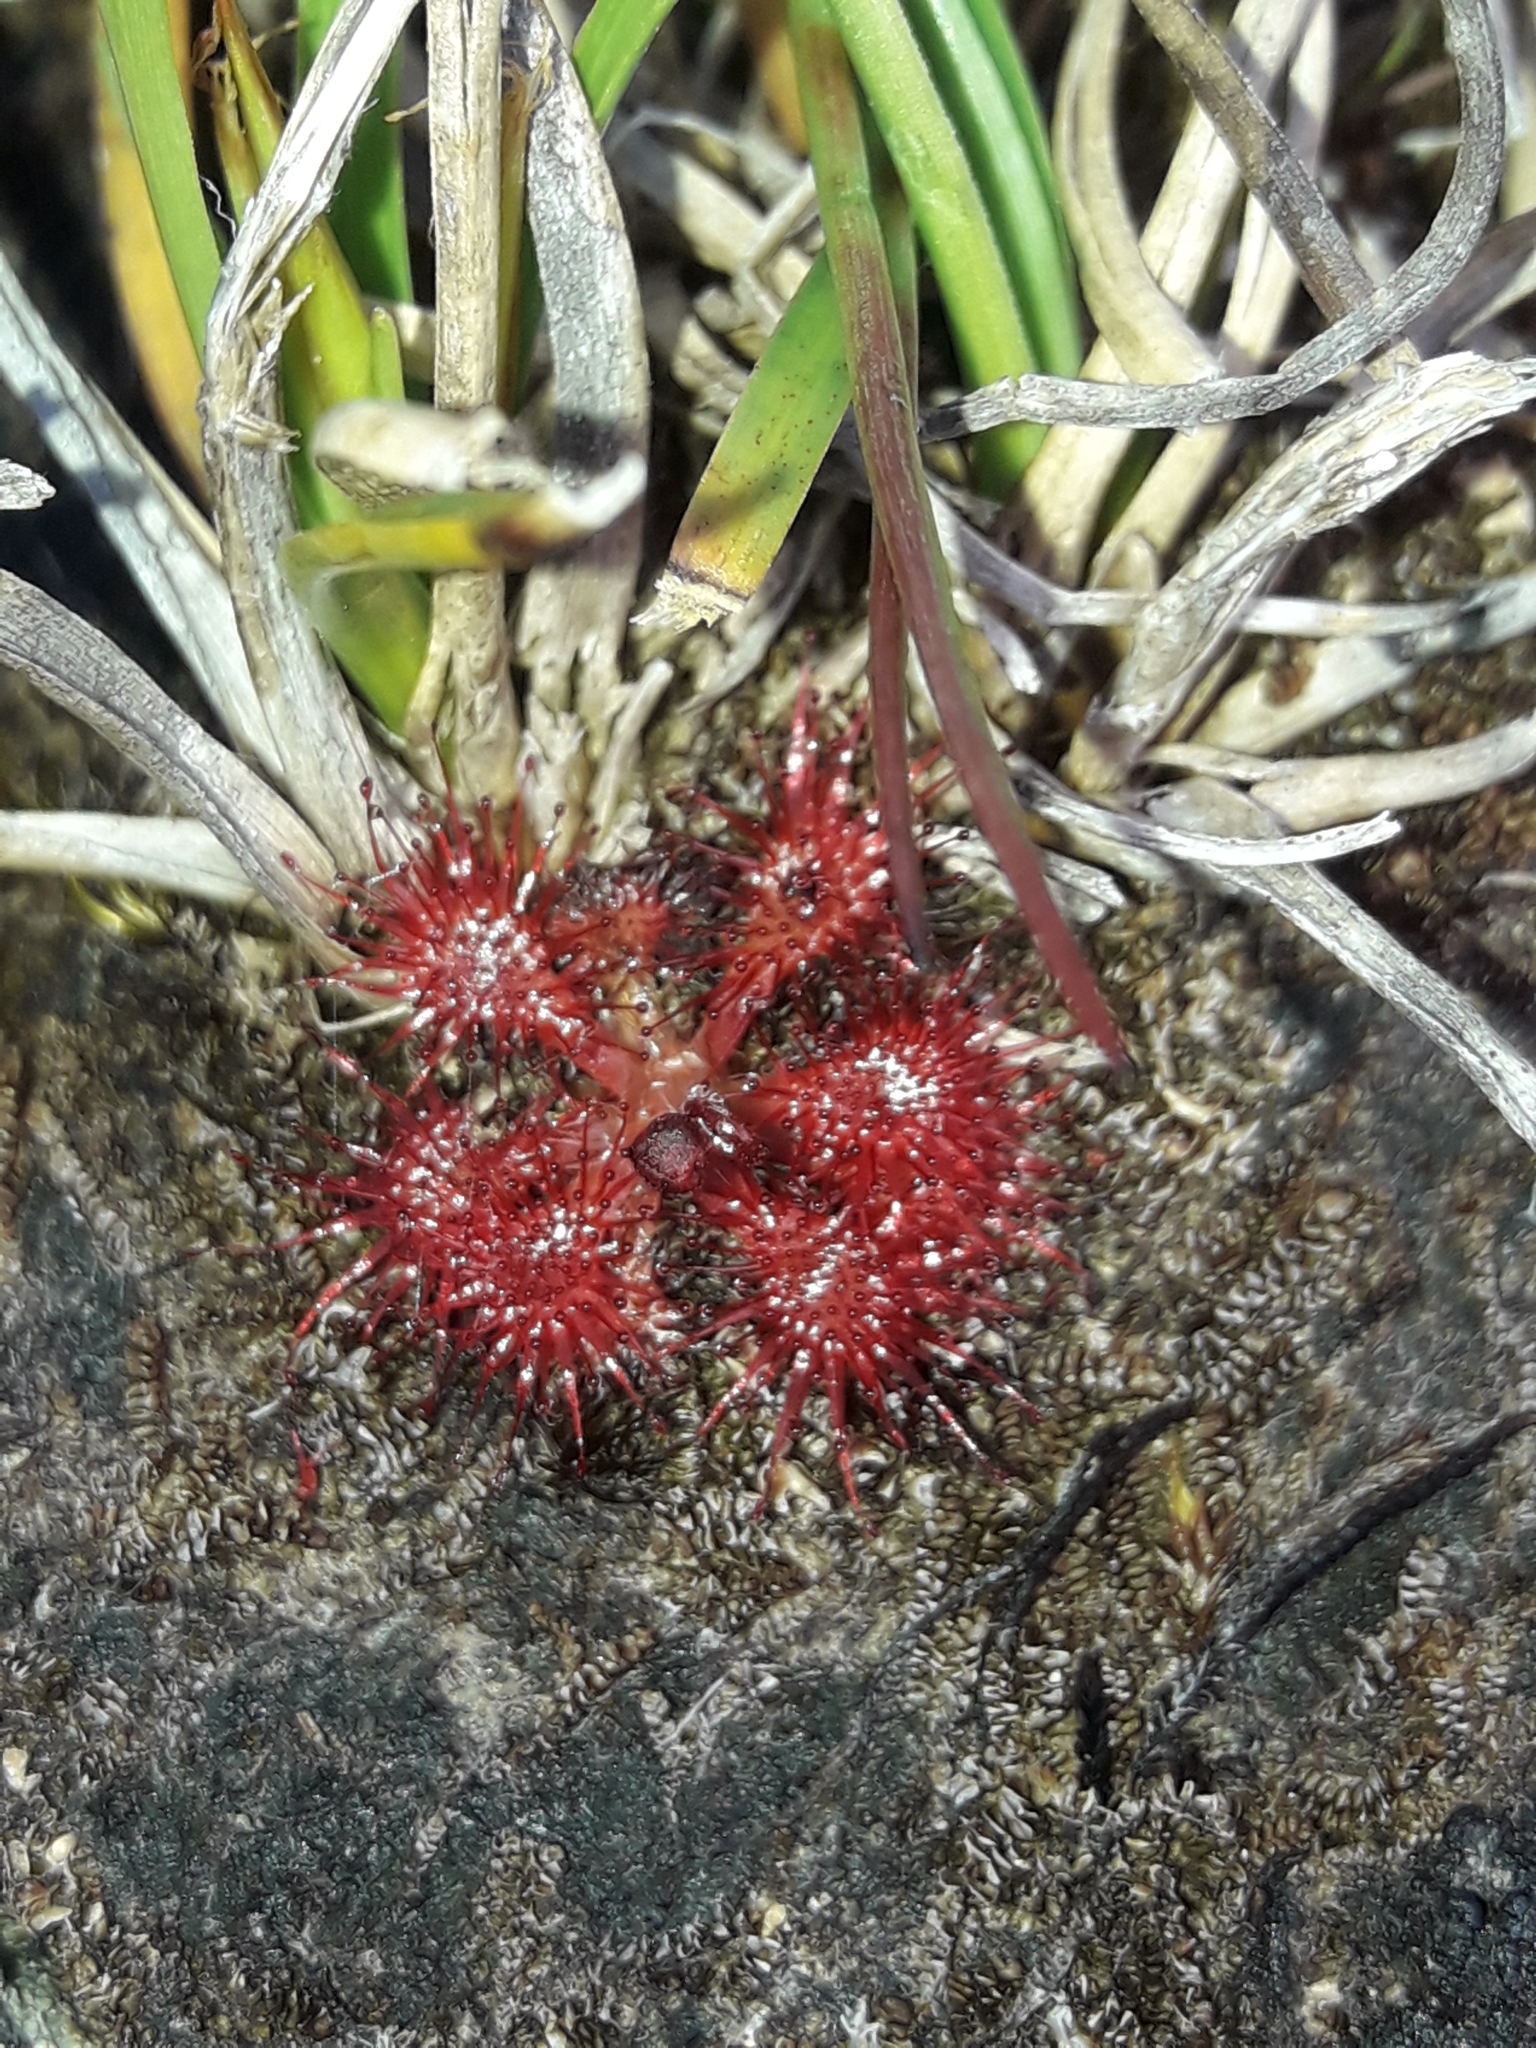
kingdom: Plantae
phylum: Tracheophyta
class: Magnoliopsida
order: Caryophyllales
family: Droseraceae
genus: Drosera
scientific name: Drosera spatulata
